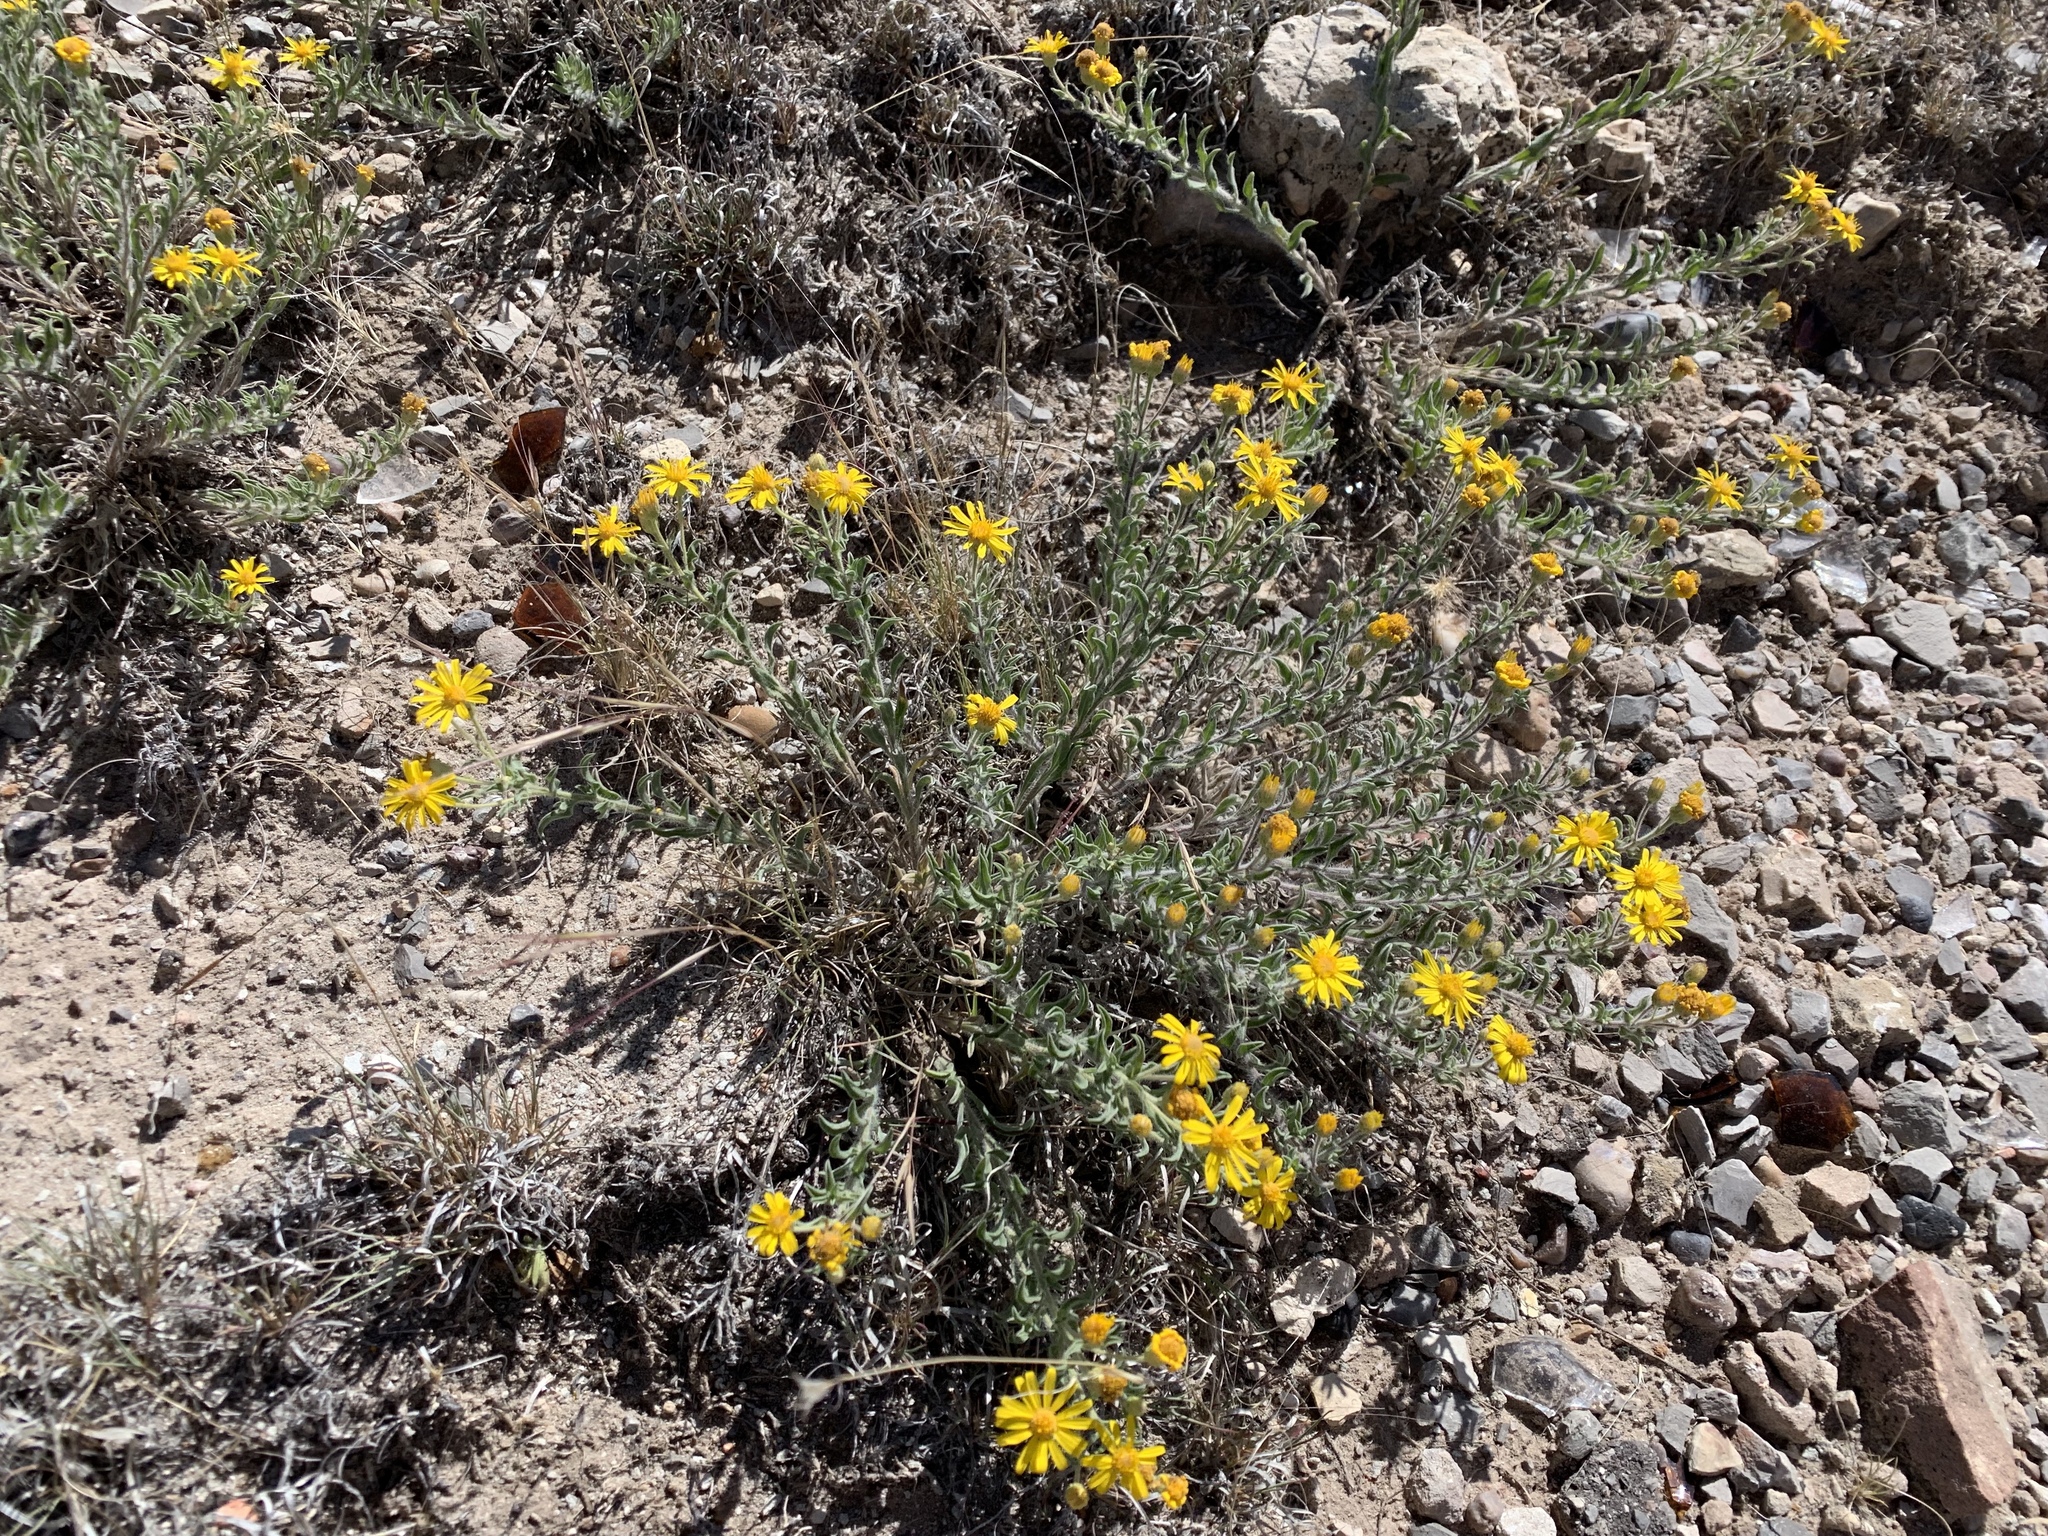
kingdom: Plantae
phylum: Tracheophyta
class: Magnoliopsida
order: Asterales
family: Asteraceae
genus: Heterotheca
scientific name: Heterotheca hirsutissima
